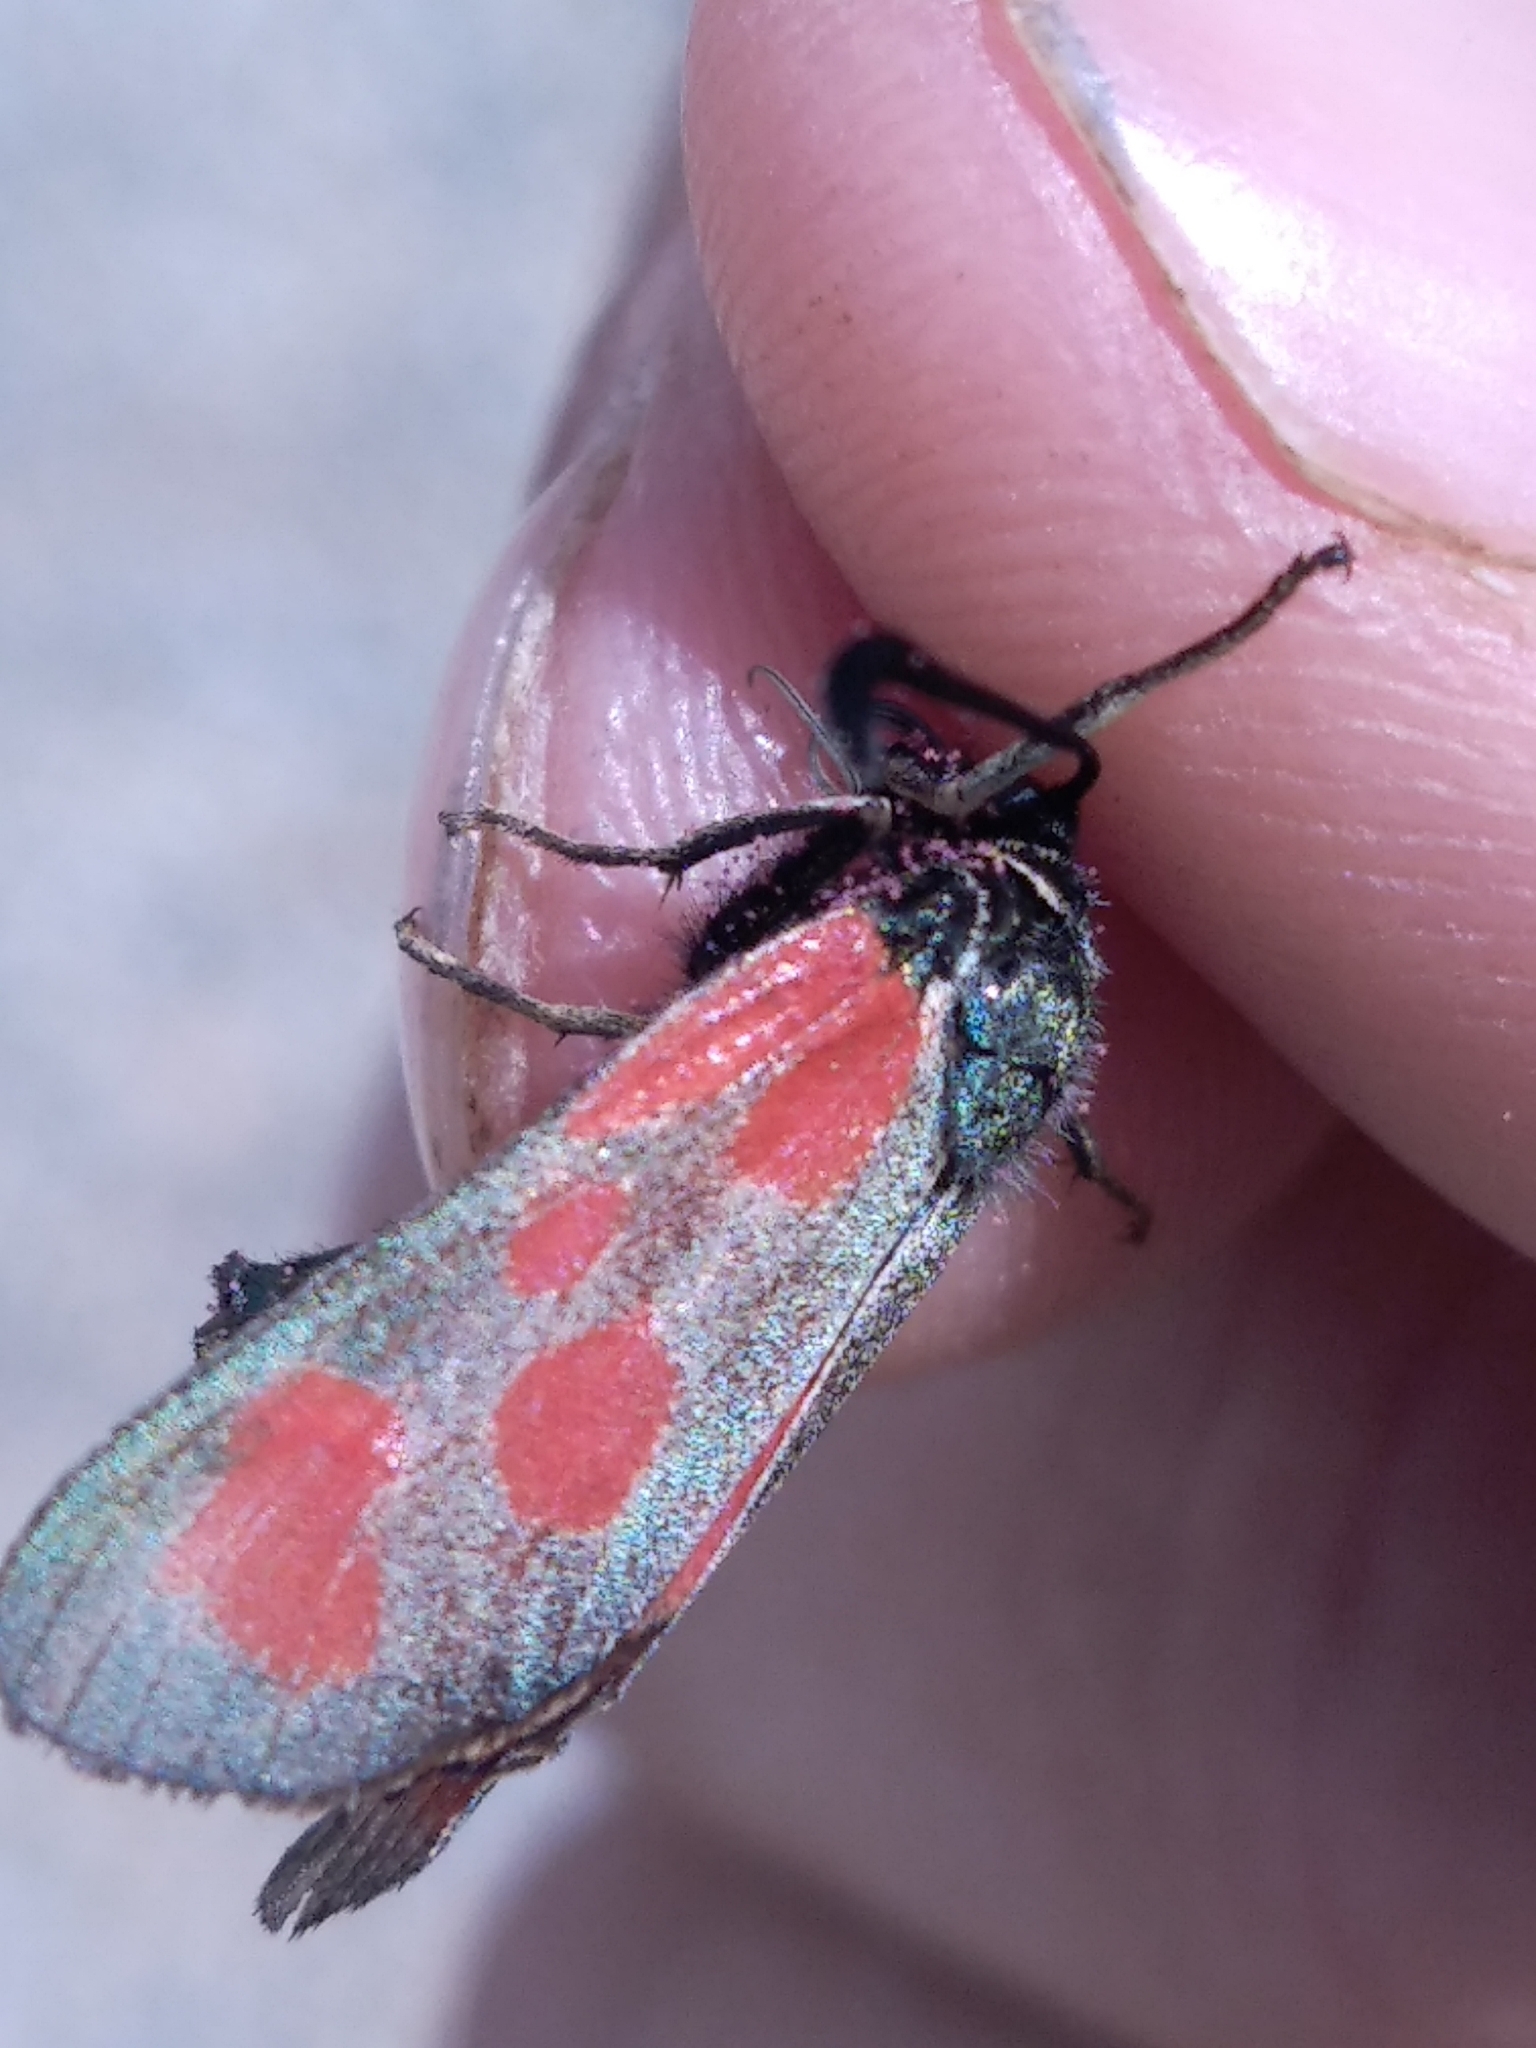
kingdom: Animalia
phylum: Arthropoda
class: Insecta
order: Lepidoptera
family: Zygaenidae
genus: Zygaena
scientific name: Zygaena loti
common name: Slender scotch burnet
